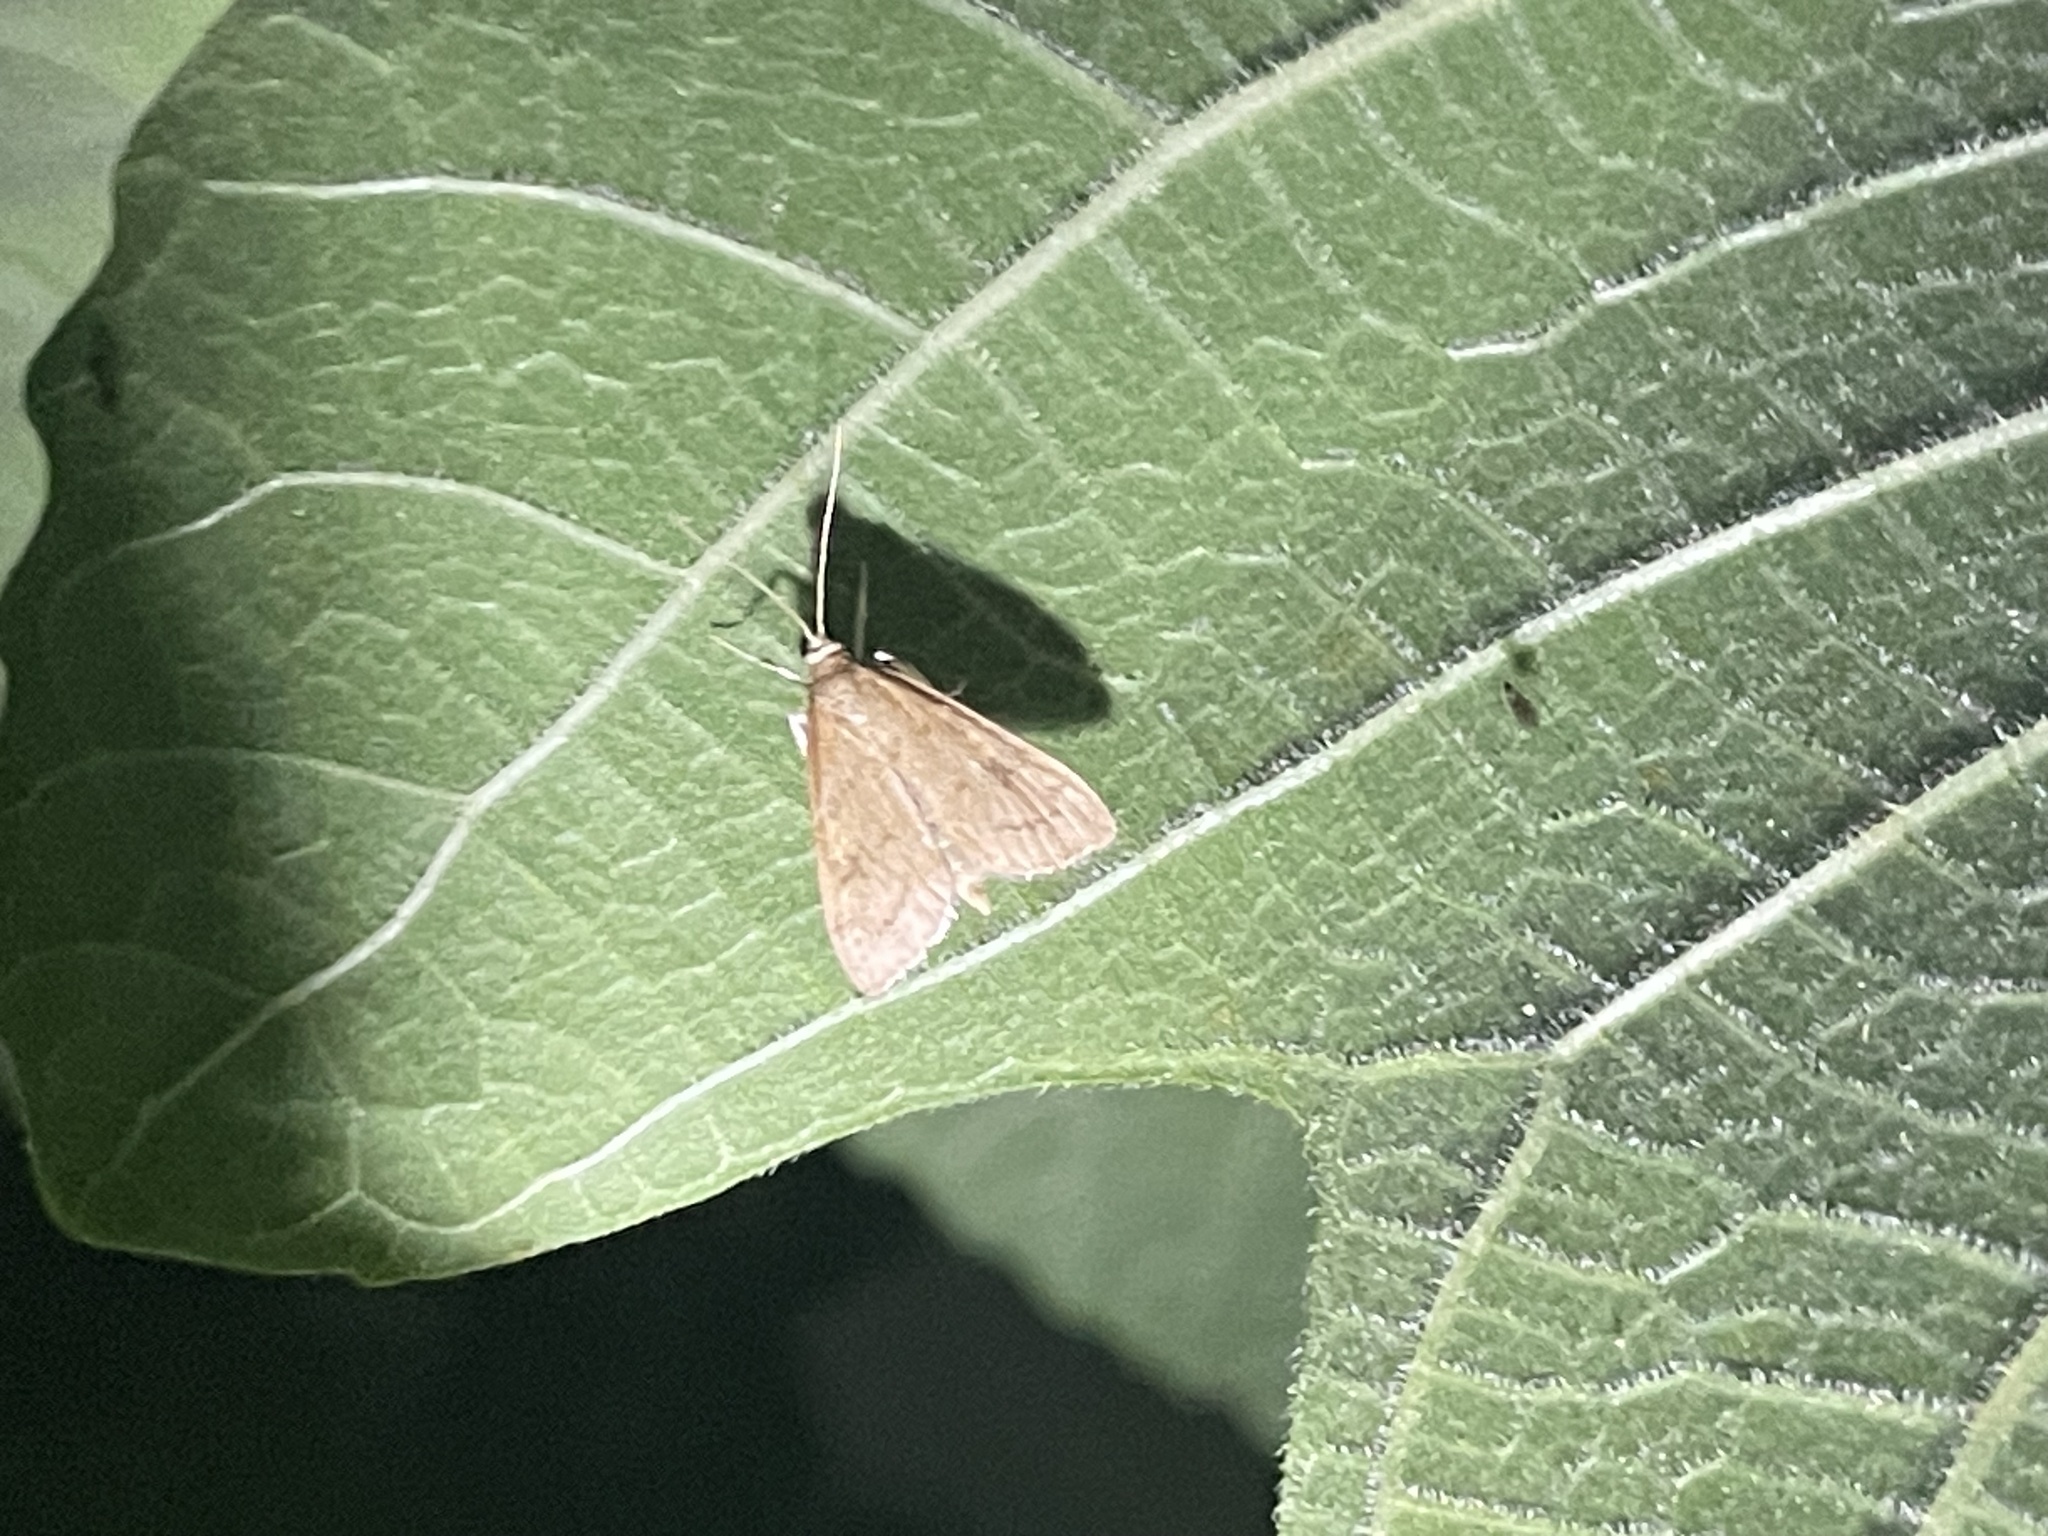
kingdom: Animalia
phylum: Arthropoda
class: Insecta
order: Lepidoptera
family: Crambidae
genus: Udea
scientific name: Udea rubigalis
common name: Celery leaftier moth
